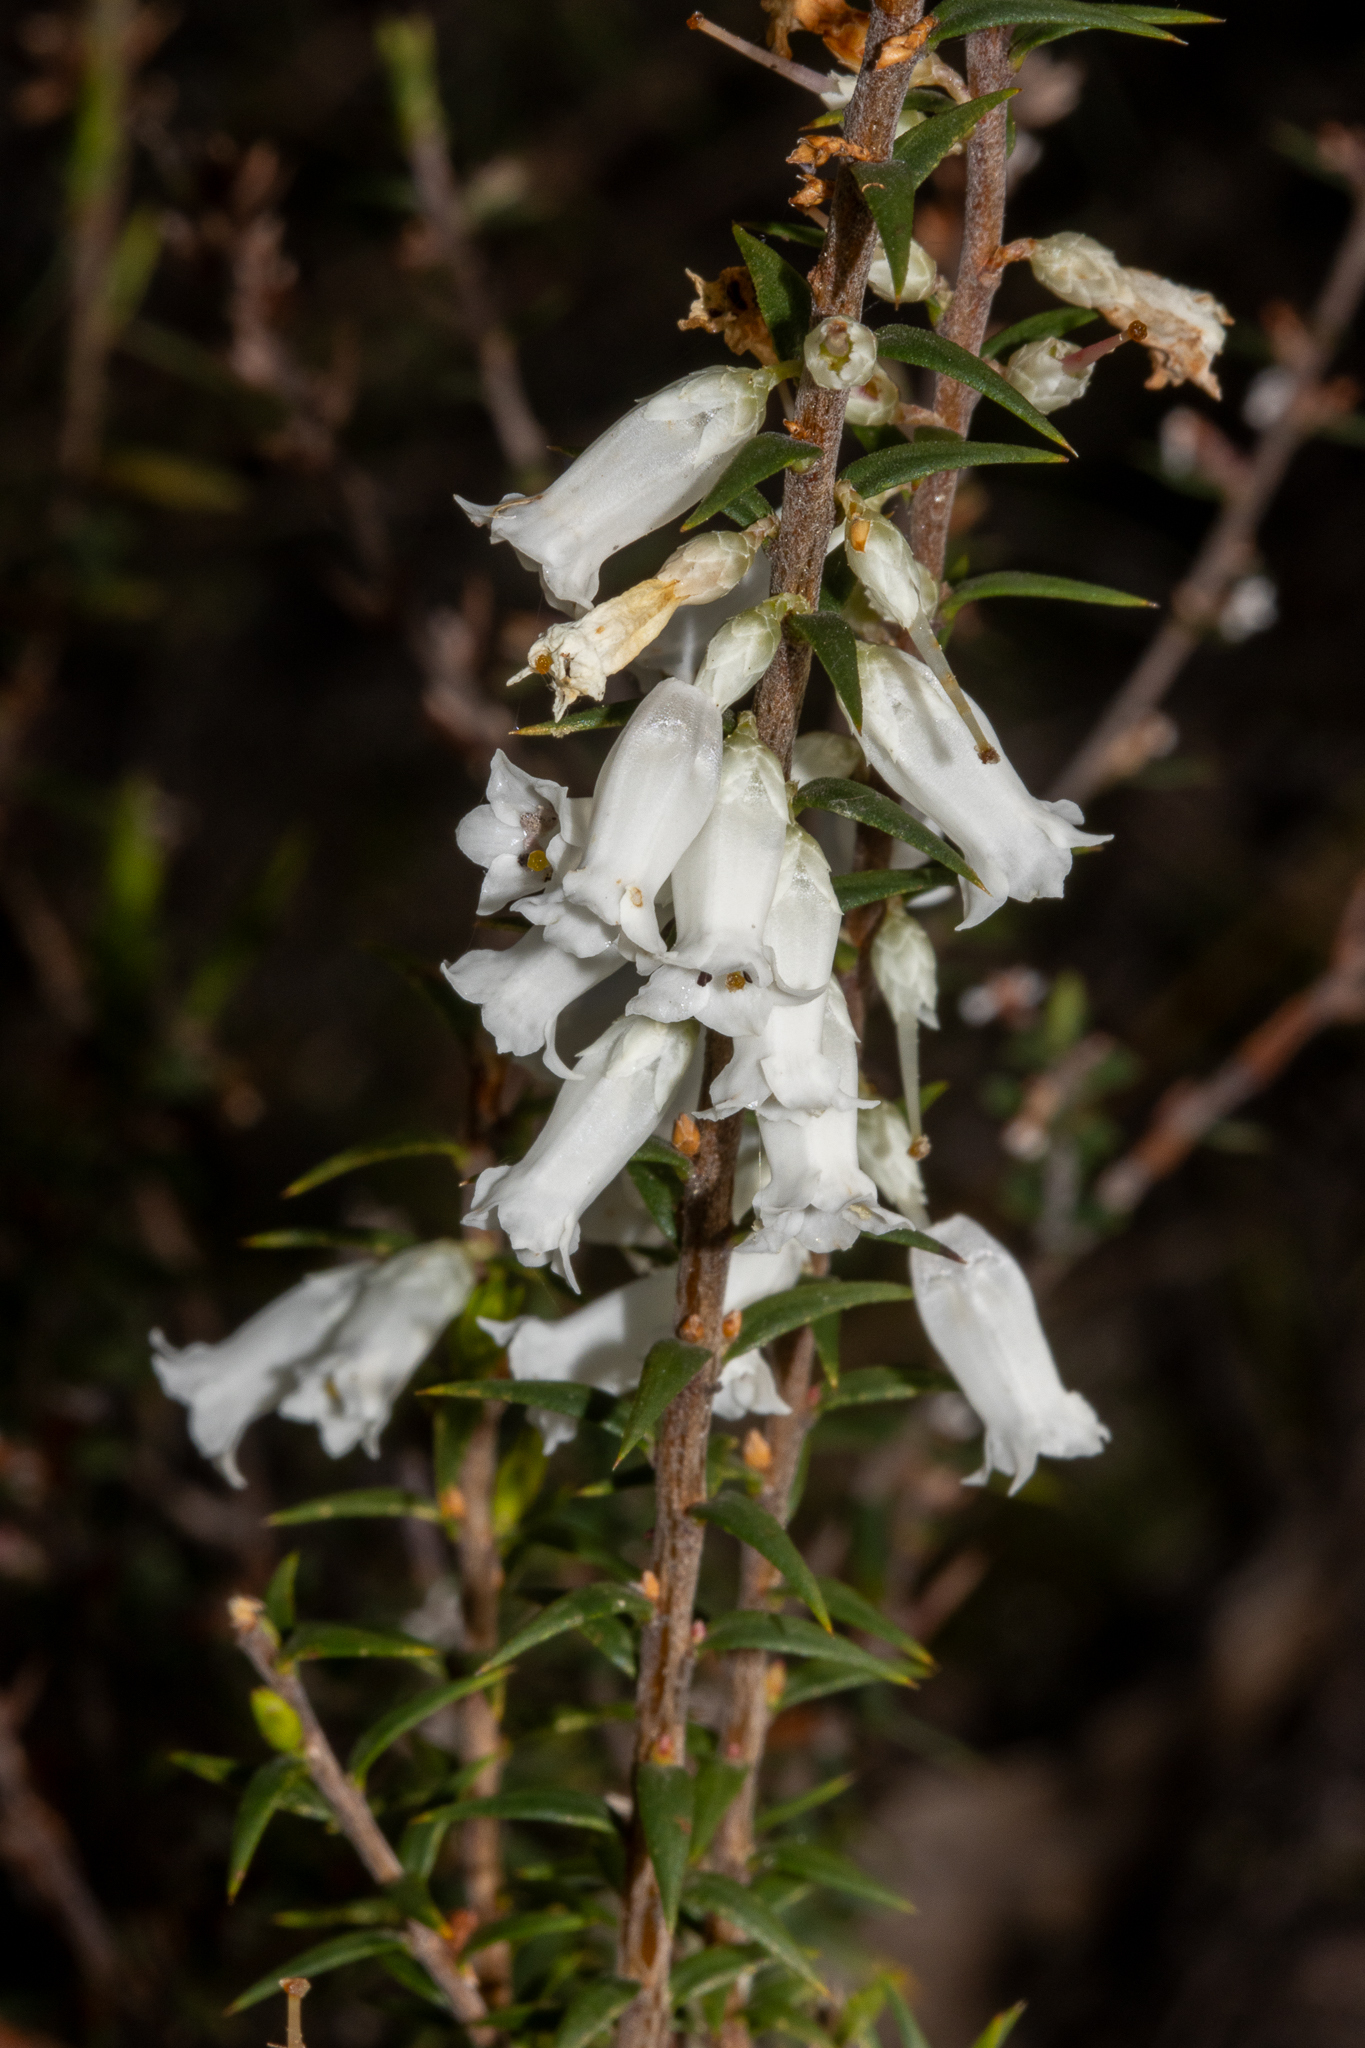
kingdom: Plantae
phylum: Tracheophyta
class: Magnoliopsida
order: Ericales
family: Ericaceae
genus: Epacris
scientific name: Epacris impressa
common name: Common-heath
